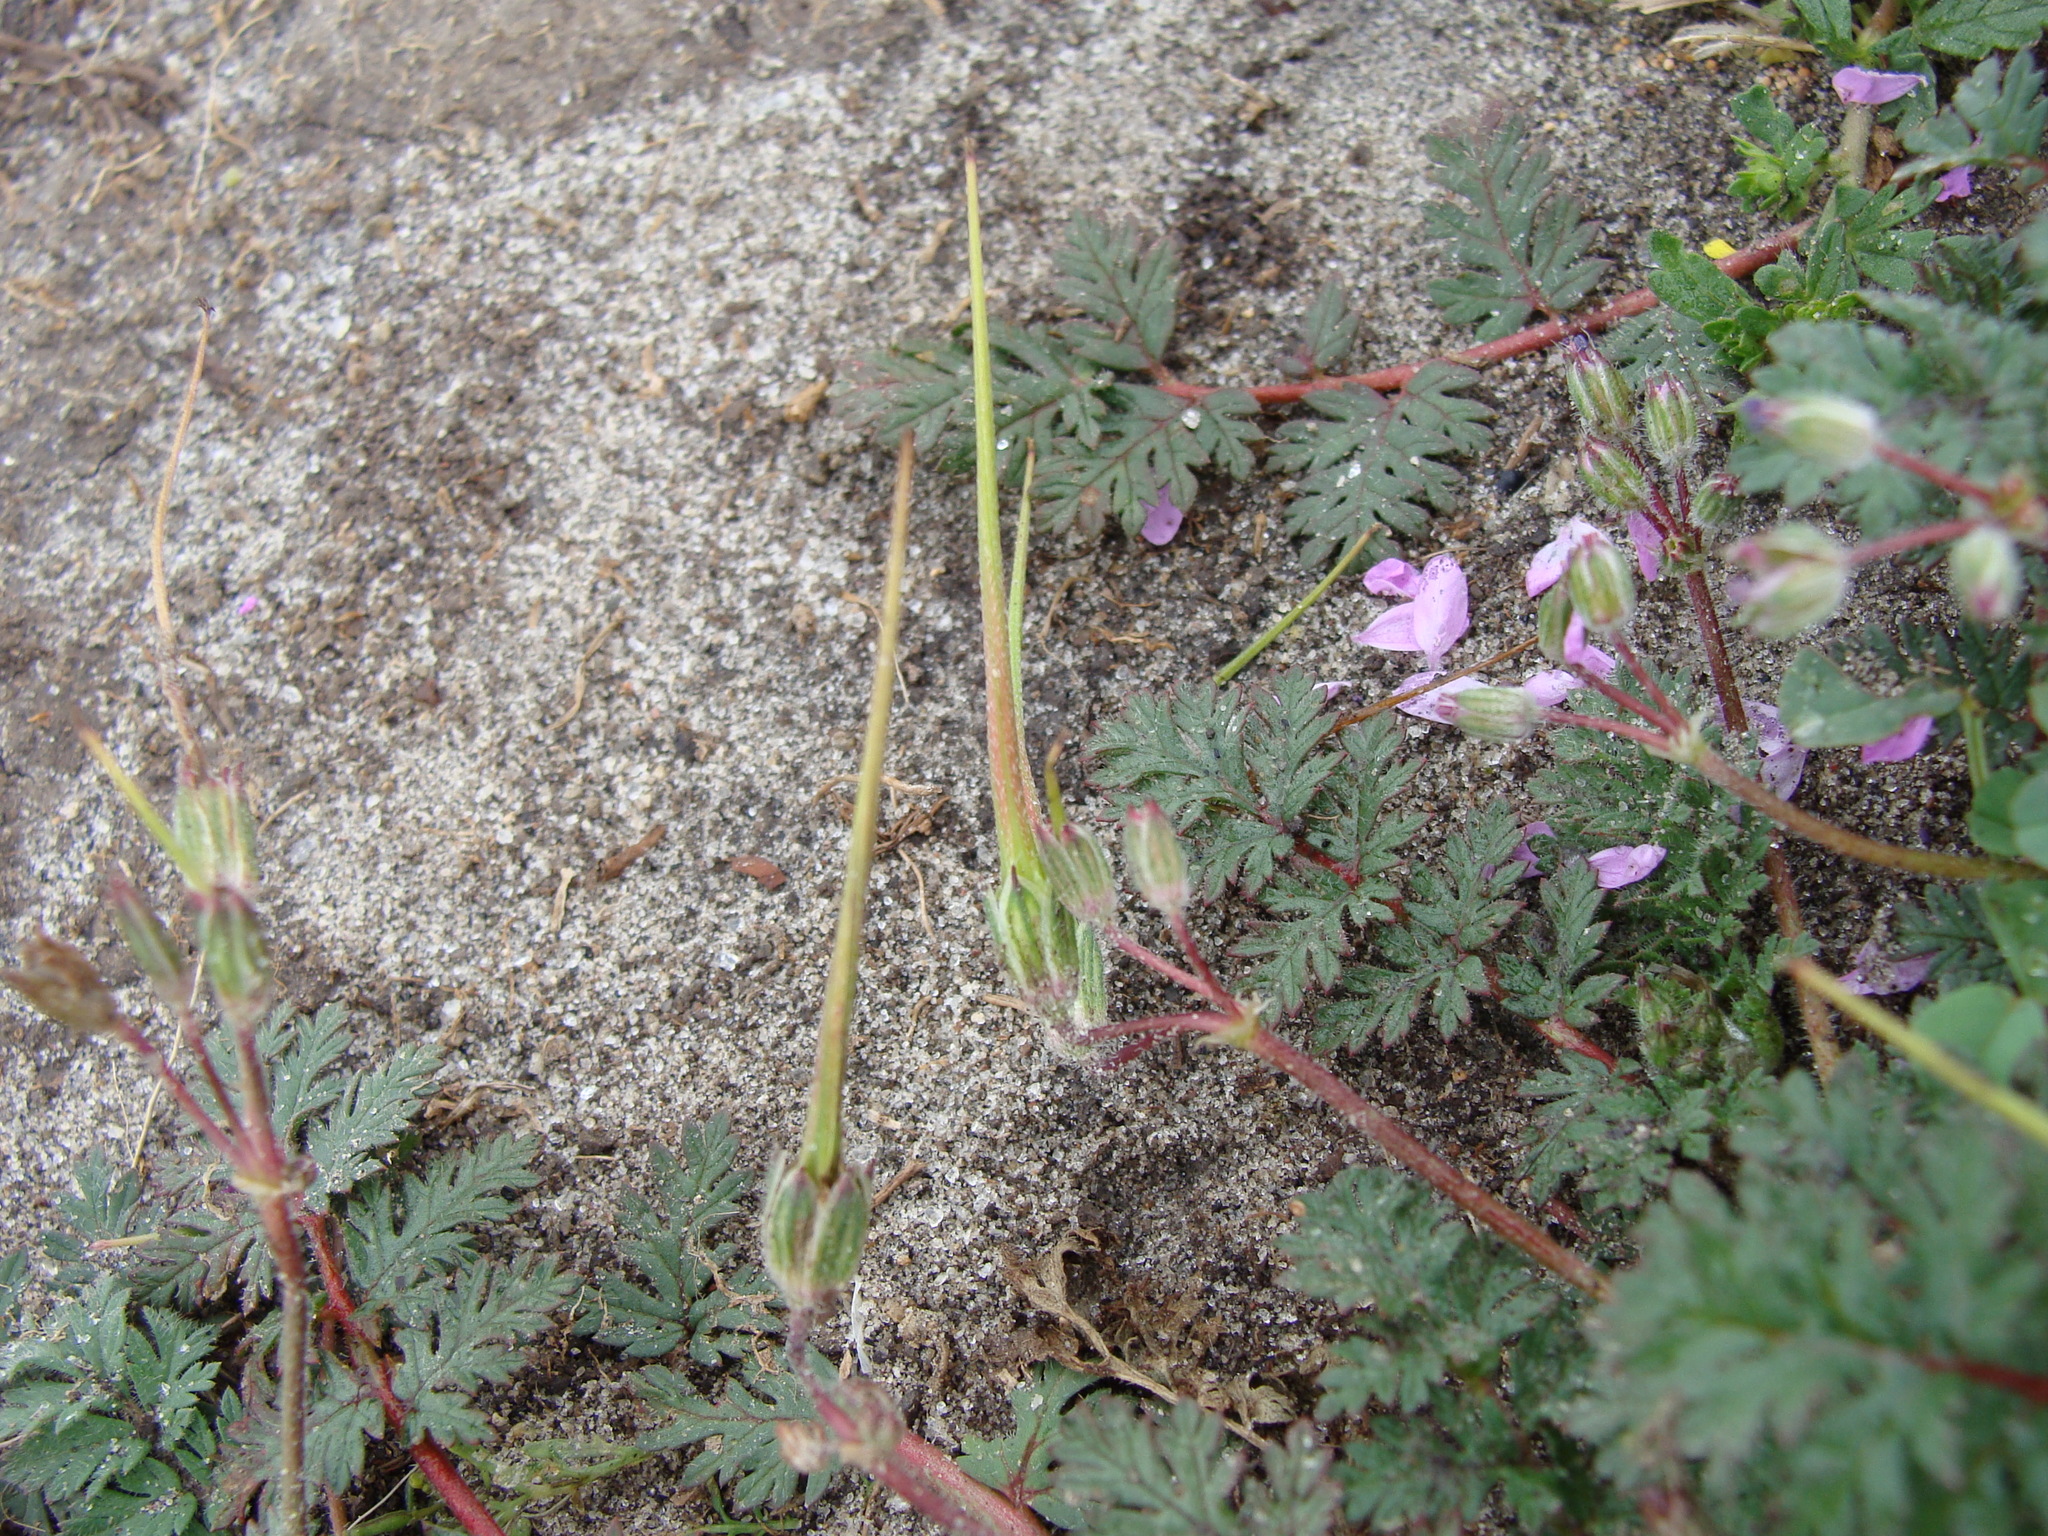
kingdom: Plantae
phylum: Tracheophyta
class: Magnoliopsida
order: Geraniales
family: Geraniaceae
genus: Erodium
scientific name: Erodium cicutarium
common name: Common stork's-bill
